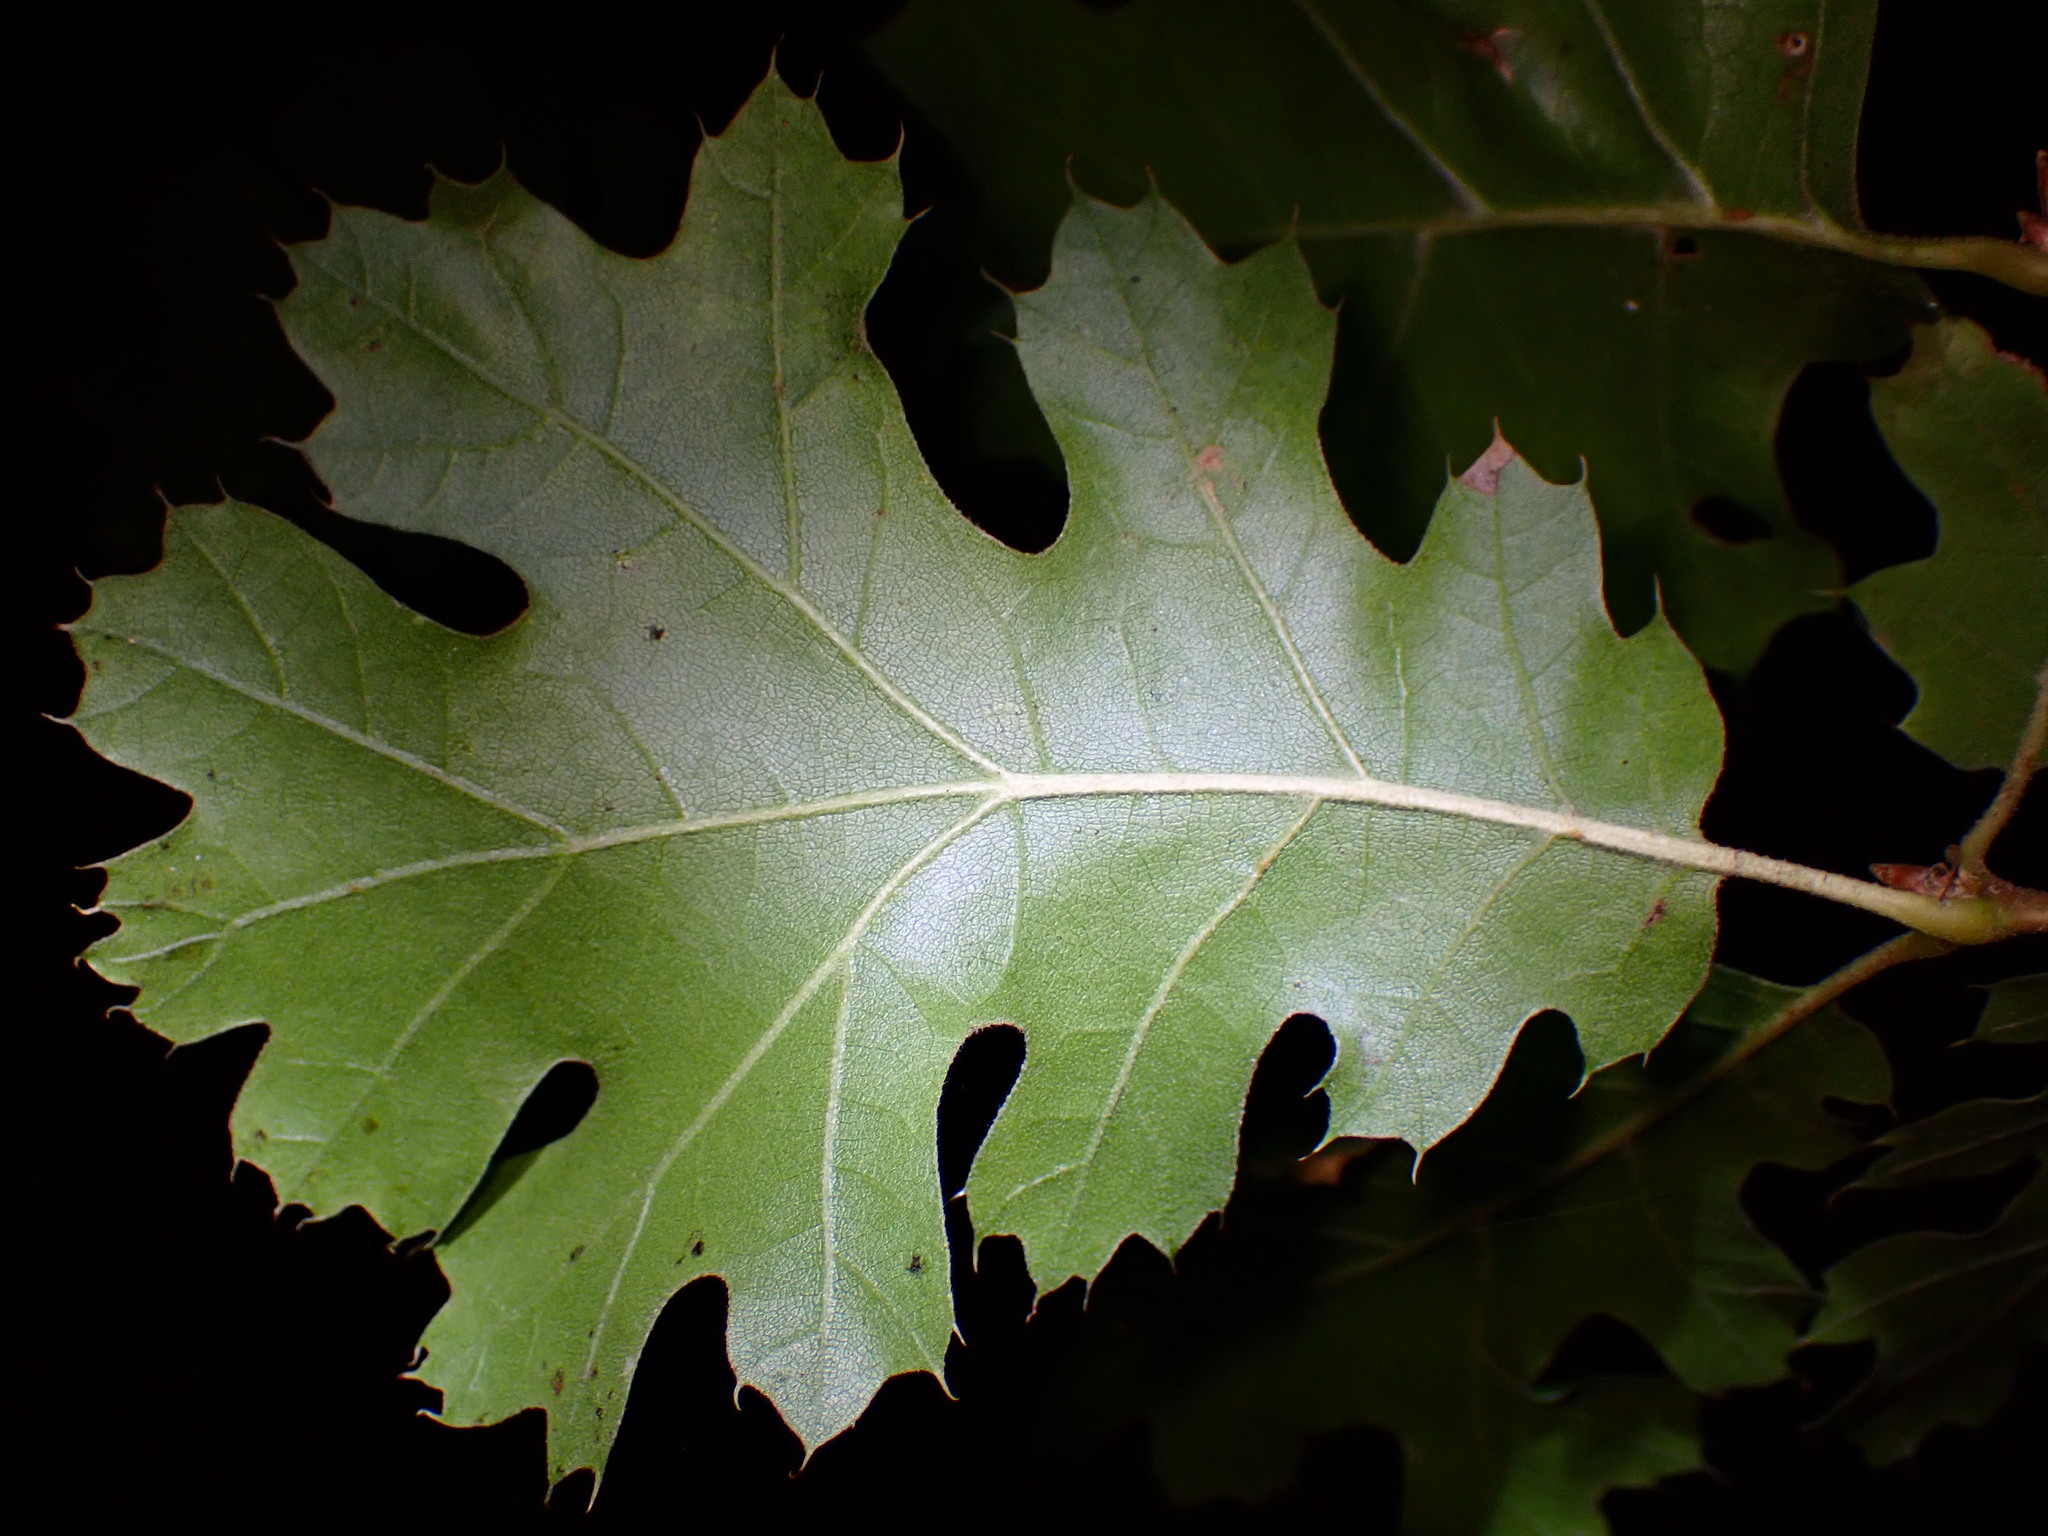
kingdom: Plantae
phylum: Tracheophyta
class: Magnoliopsida
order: Fagales
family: Fagaceae
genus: Quercus
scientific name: Quercus kelloggii
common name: California black oak
